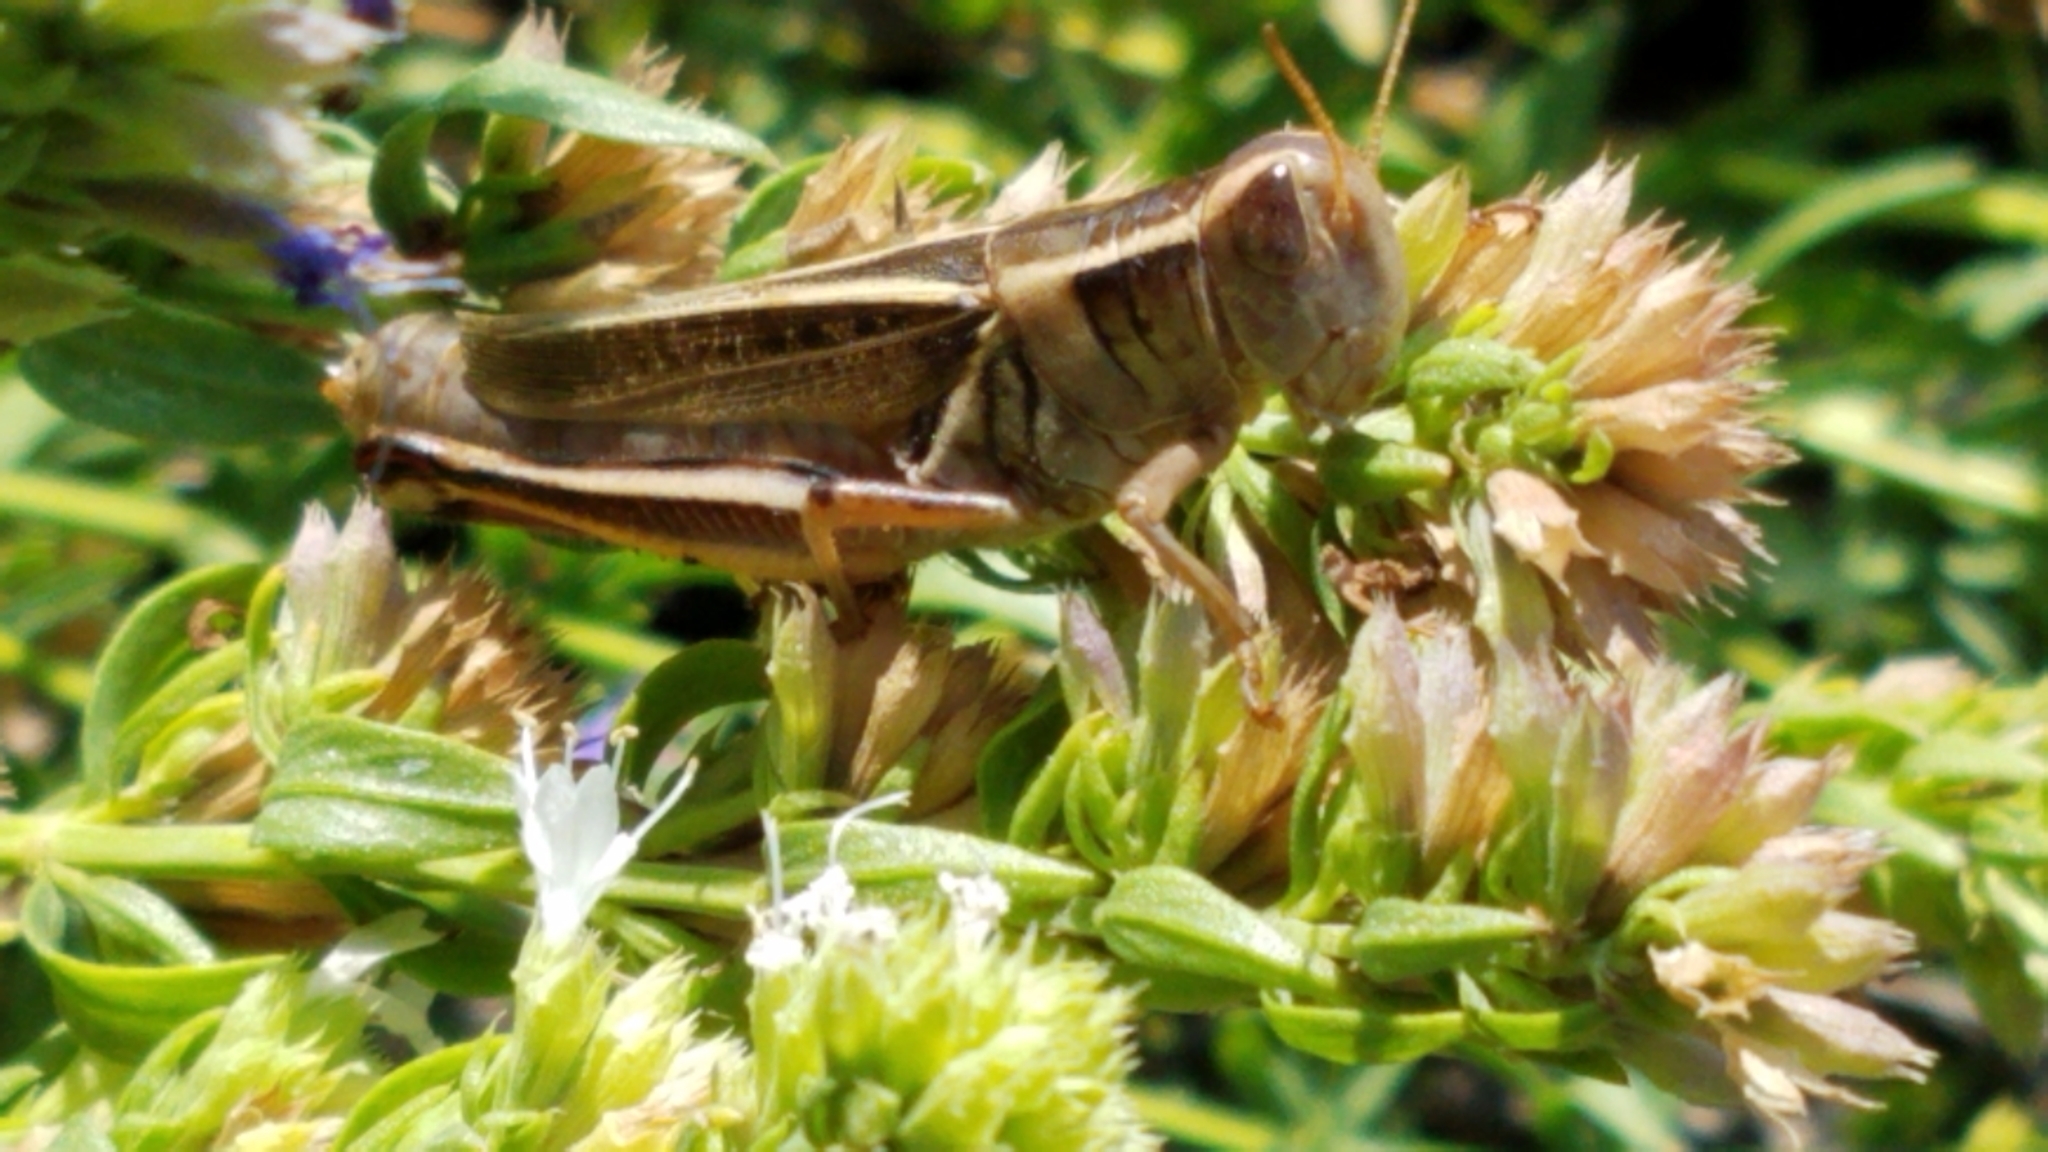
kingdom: Animalia
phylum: Arthropoda
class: Insecta
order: Orthoptera
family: Acrididae
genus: Melanoplus
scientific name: Melanoplus bivittatus
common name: Two-striped grasshopper
